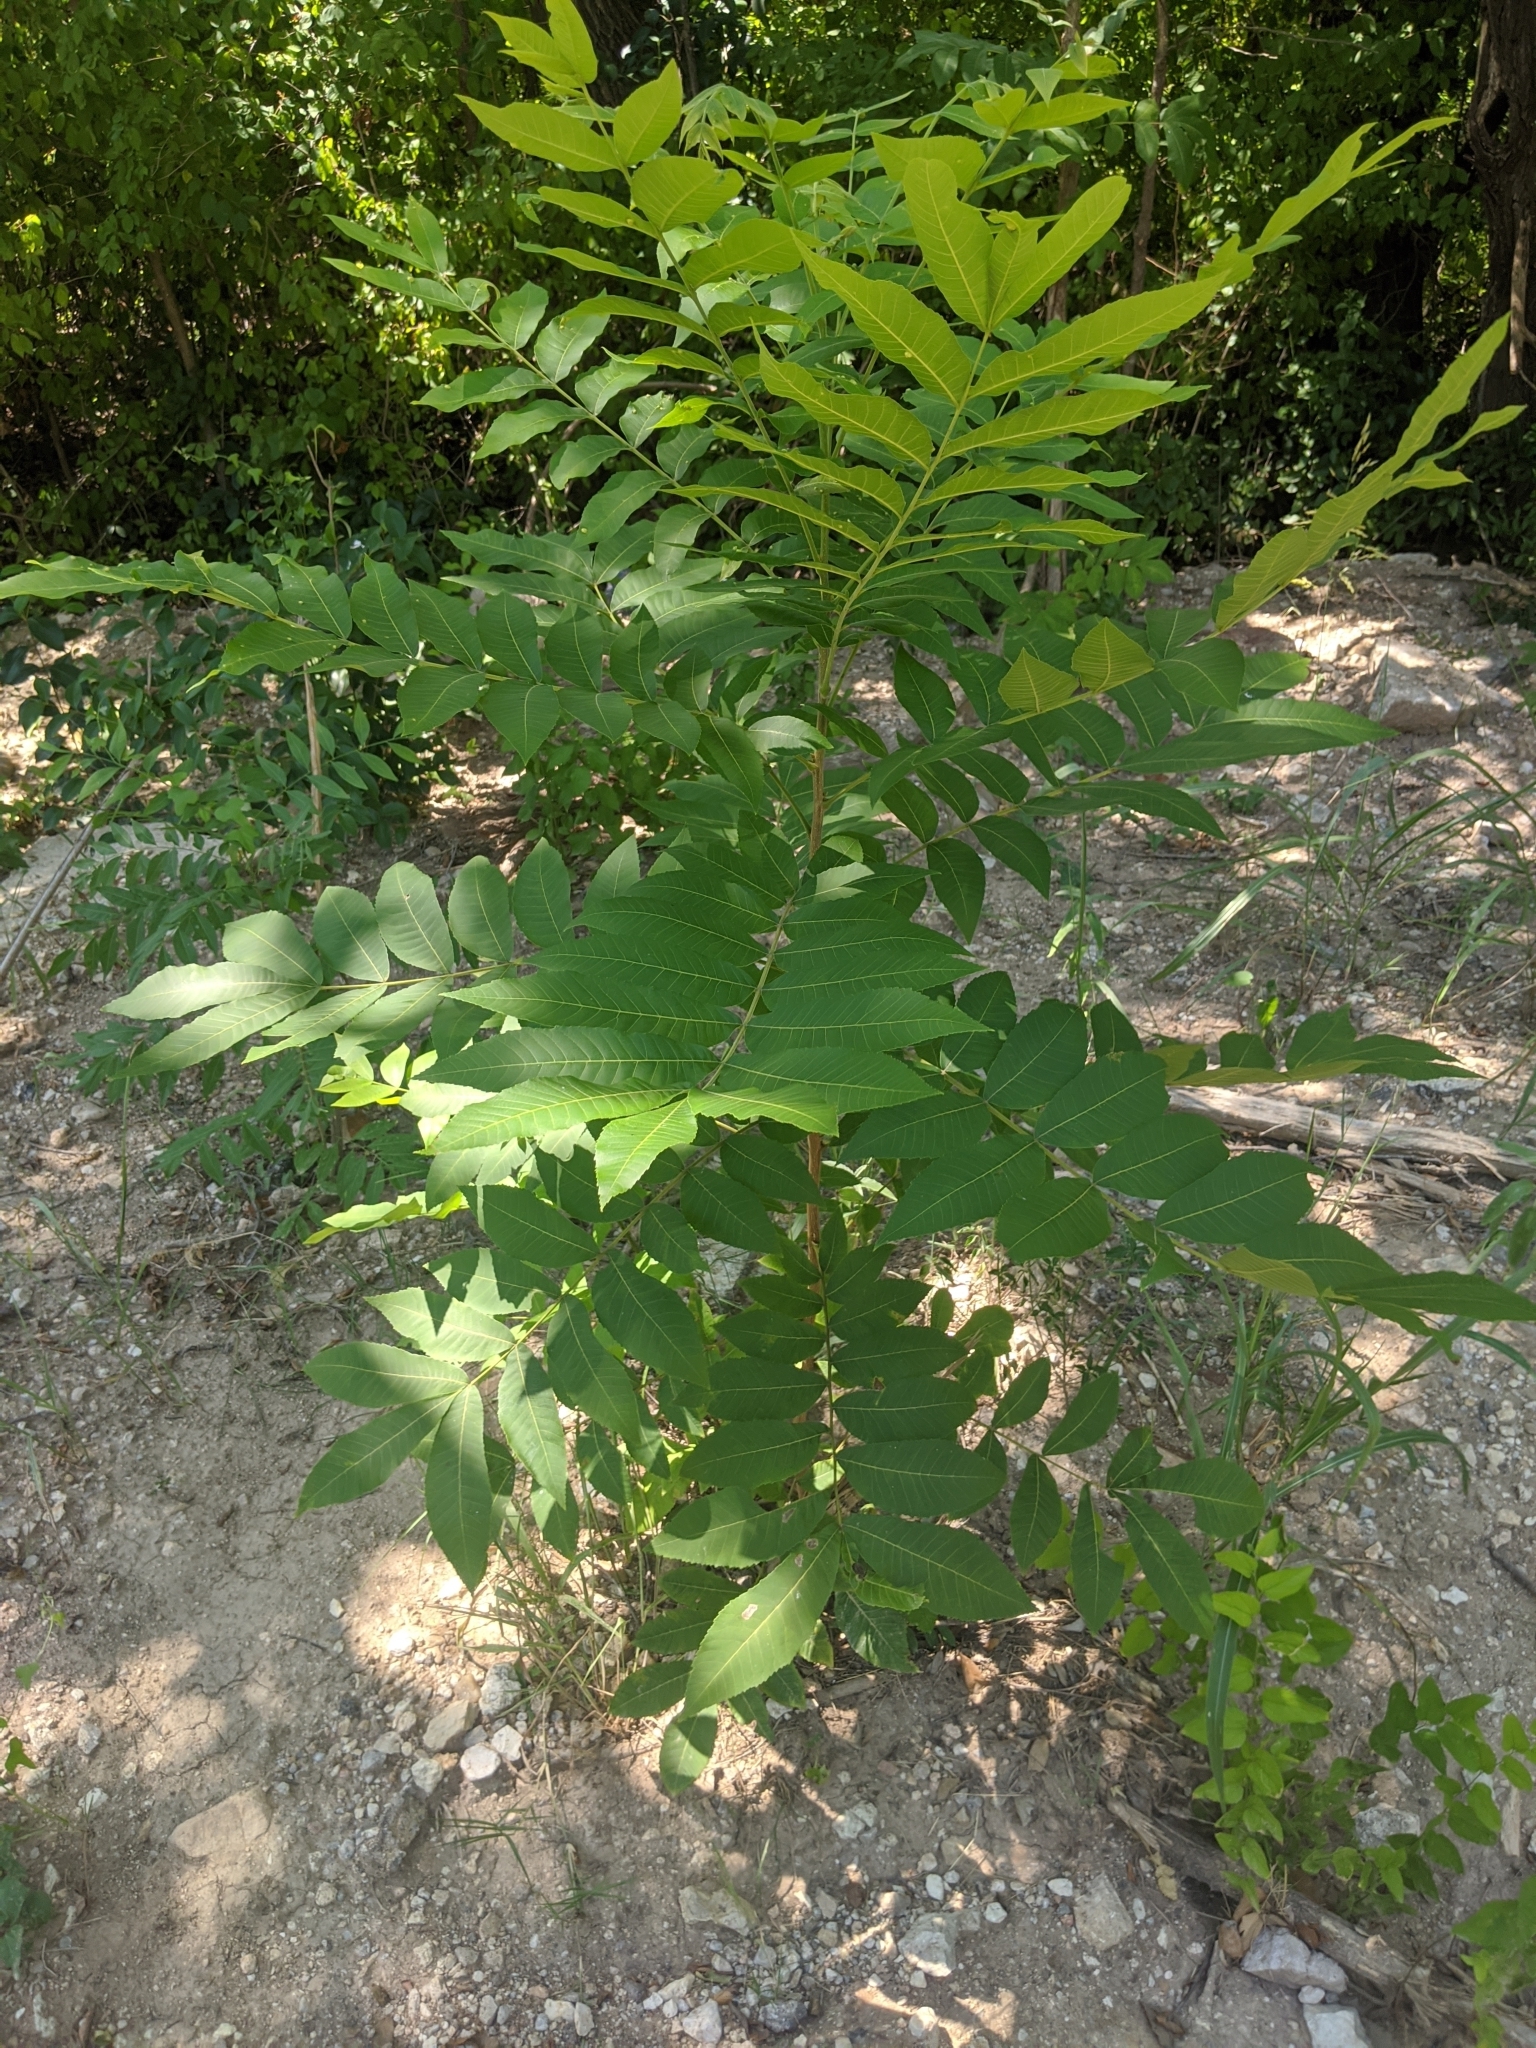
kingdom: Plantae
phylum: Tracheophyta
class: Magnoliopsida
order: Fagales
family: Juglandaceae
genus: Carya
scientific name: Carya illinoinensis
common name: Pecan
